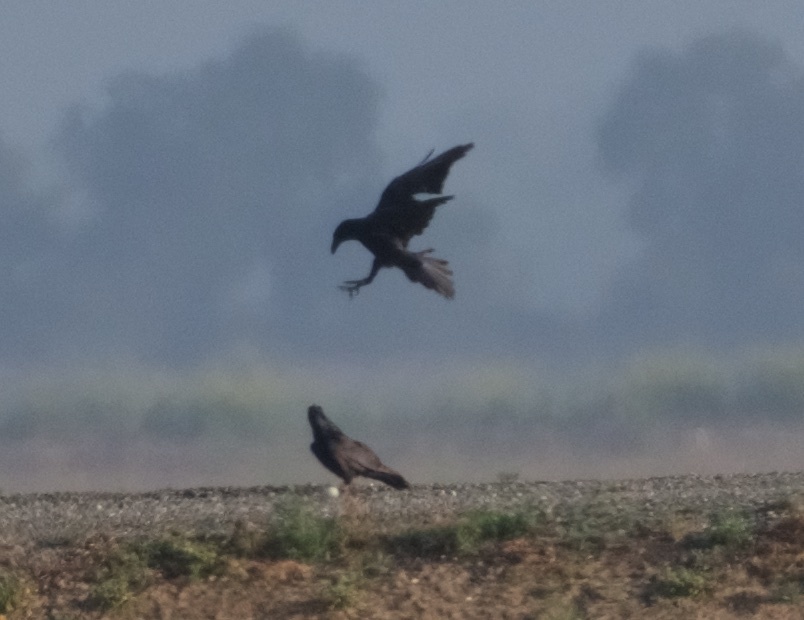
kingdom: Animalia
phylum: Chordata
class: Aves
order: Passeriformes
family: Corvidae
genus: Corvus
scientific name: Corvus corax
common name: Common raven
